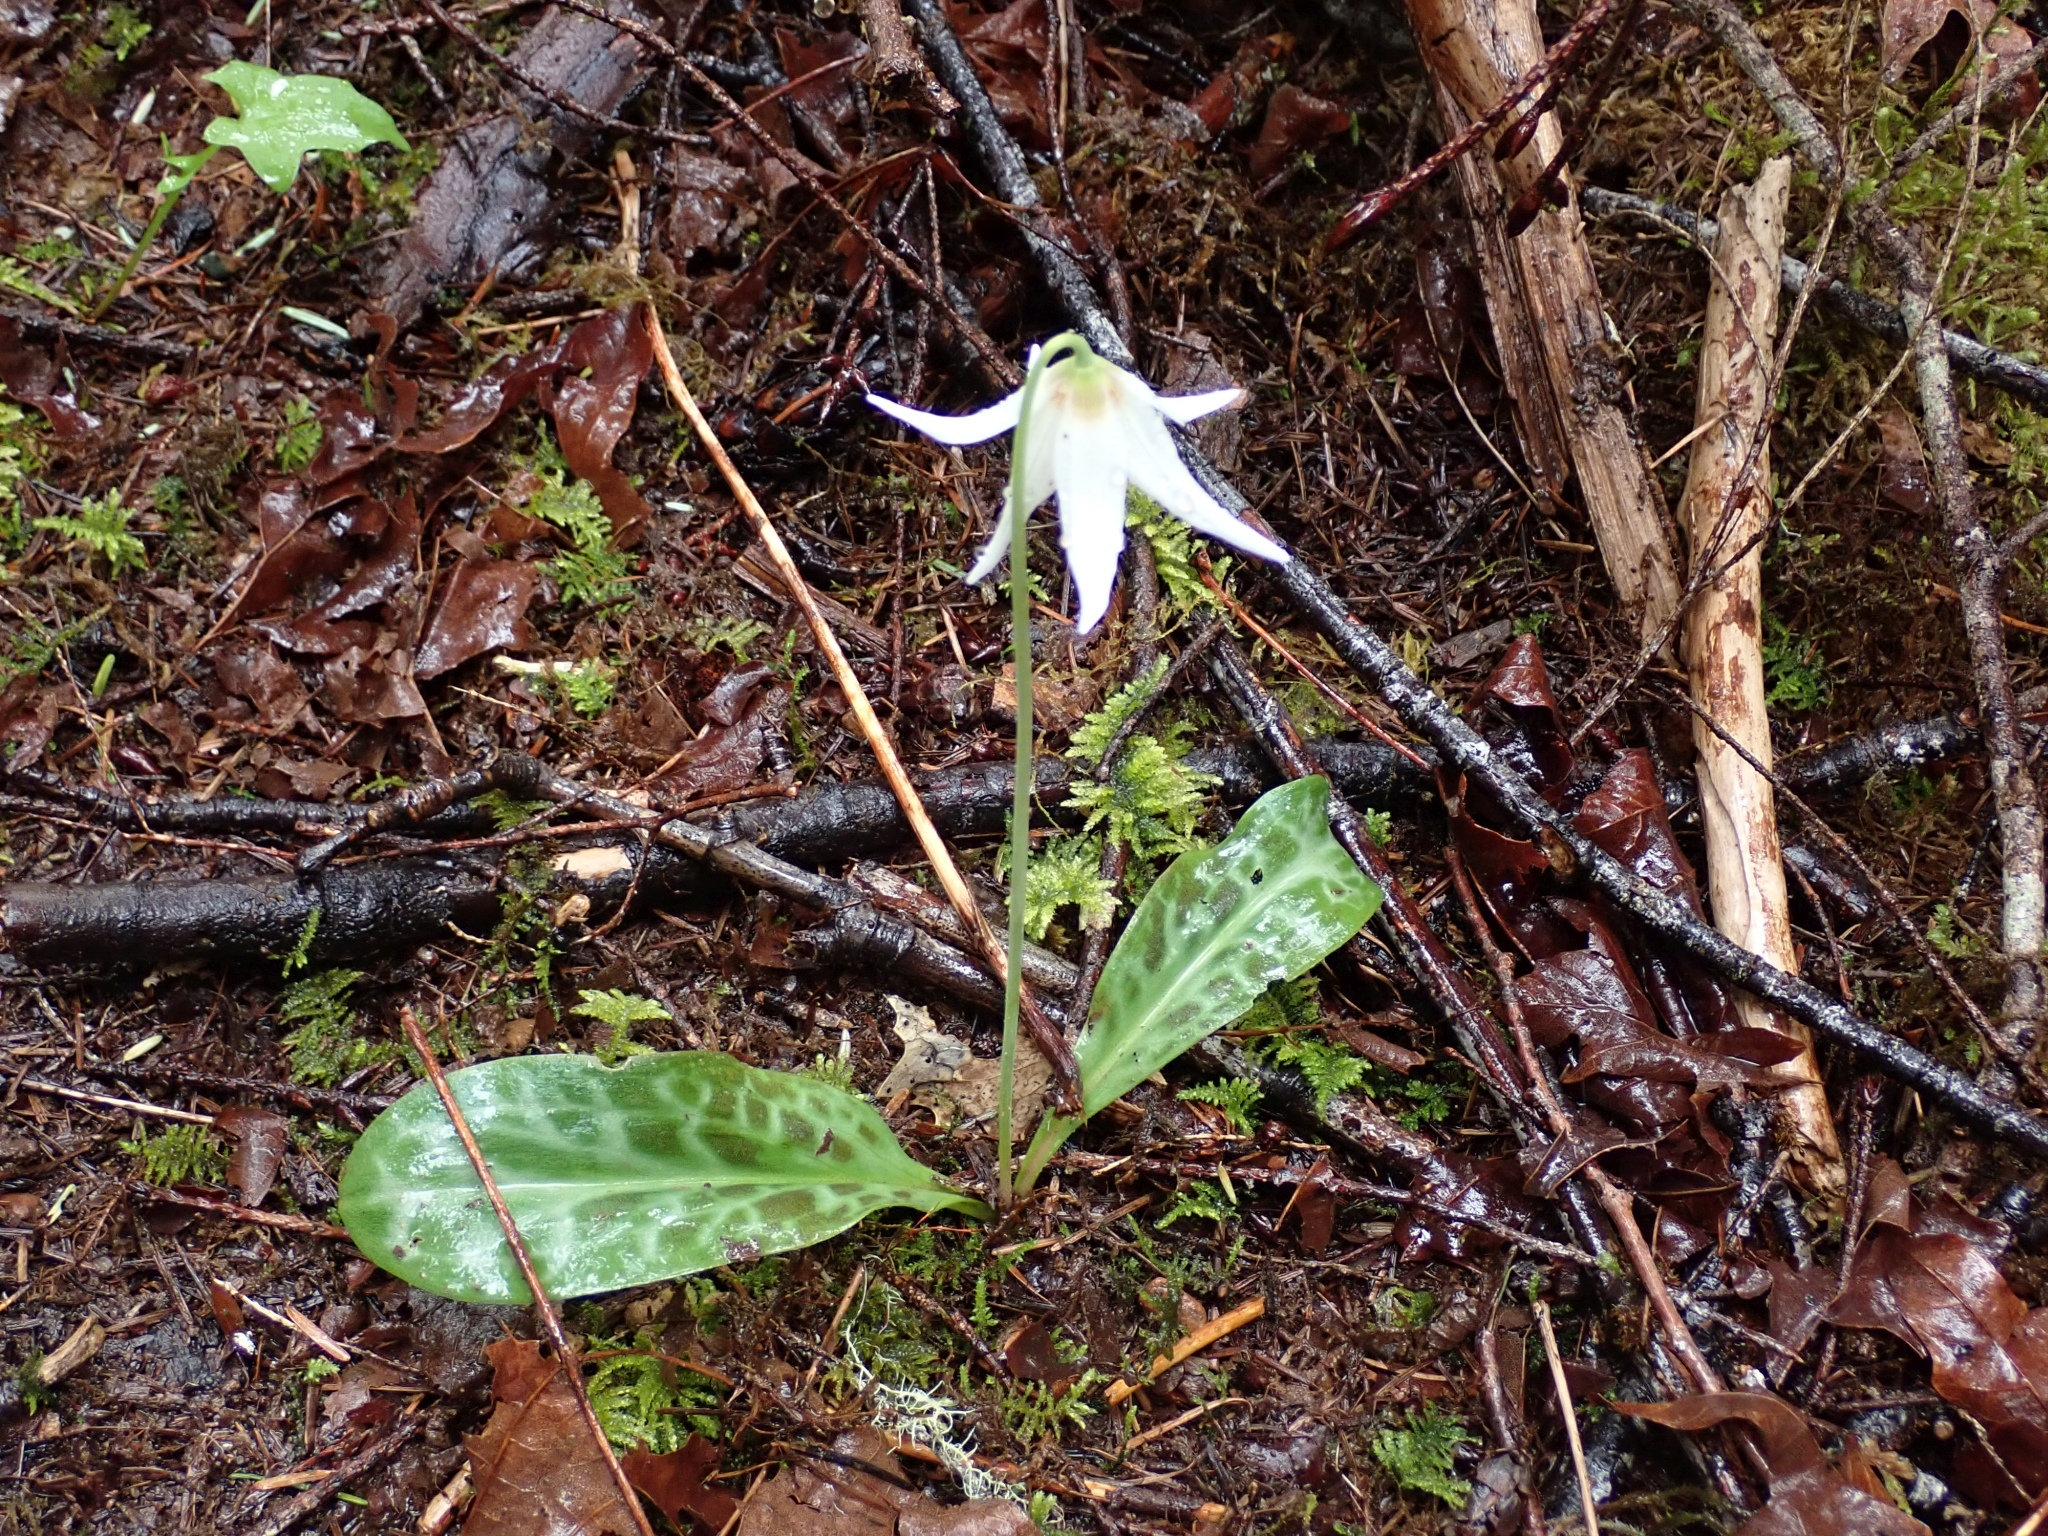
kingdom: Plantae
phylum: Tracheophyta
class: Liliopsida
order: Liliales
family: Liliaceae
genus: Erythronium
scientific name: Erythronium oregonum
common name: Giant adder's-tongue
